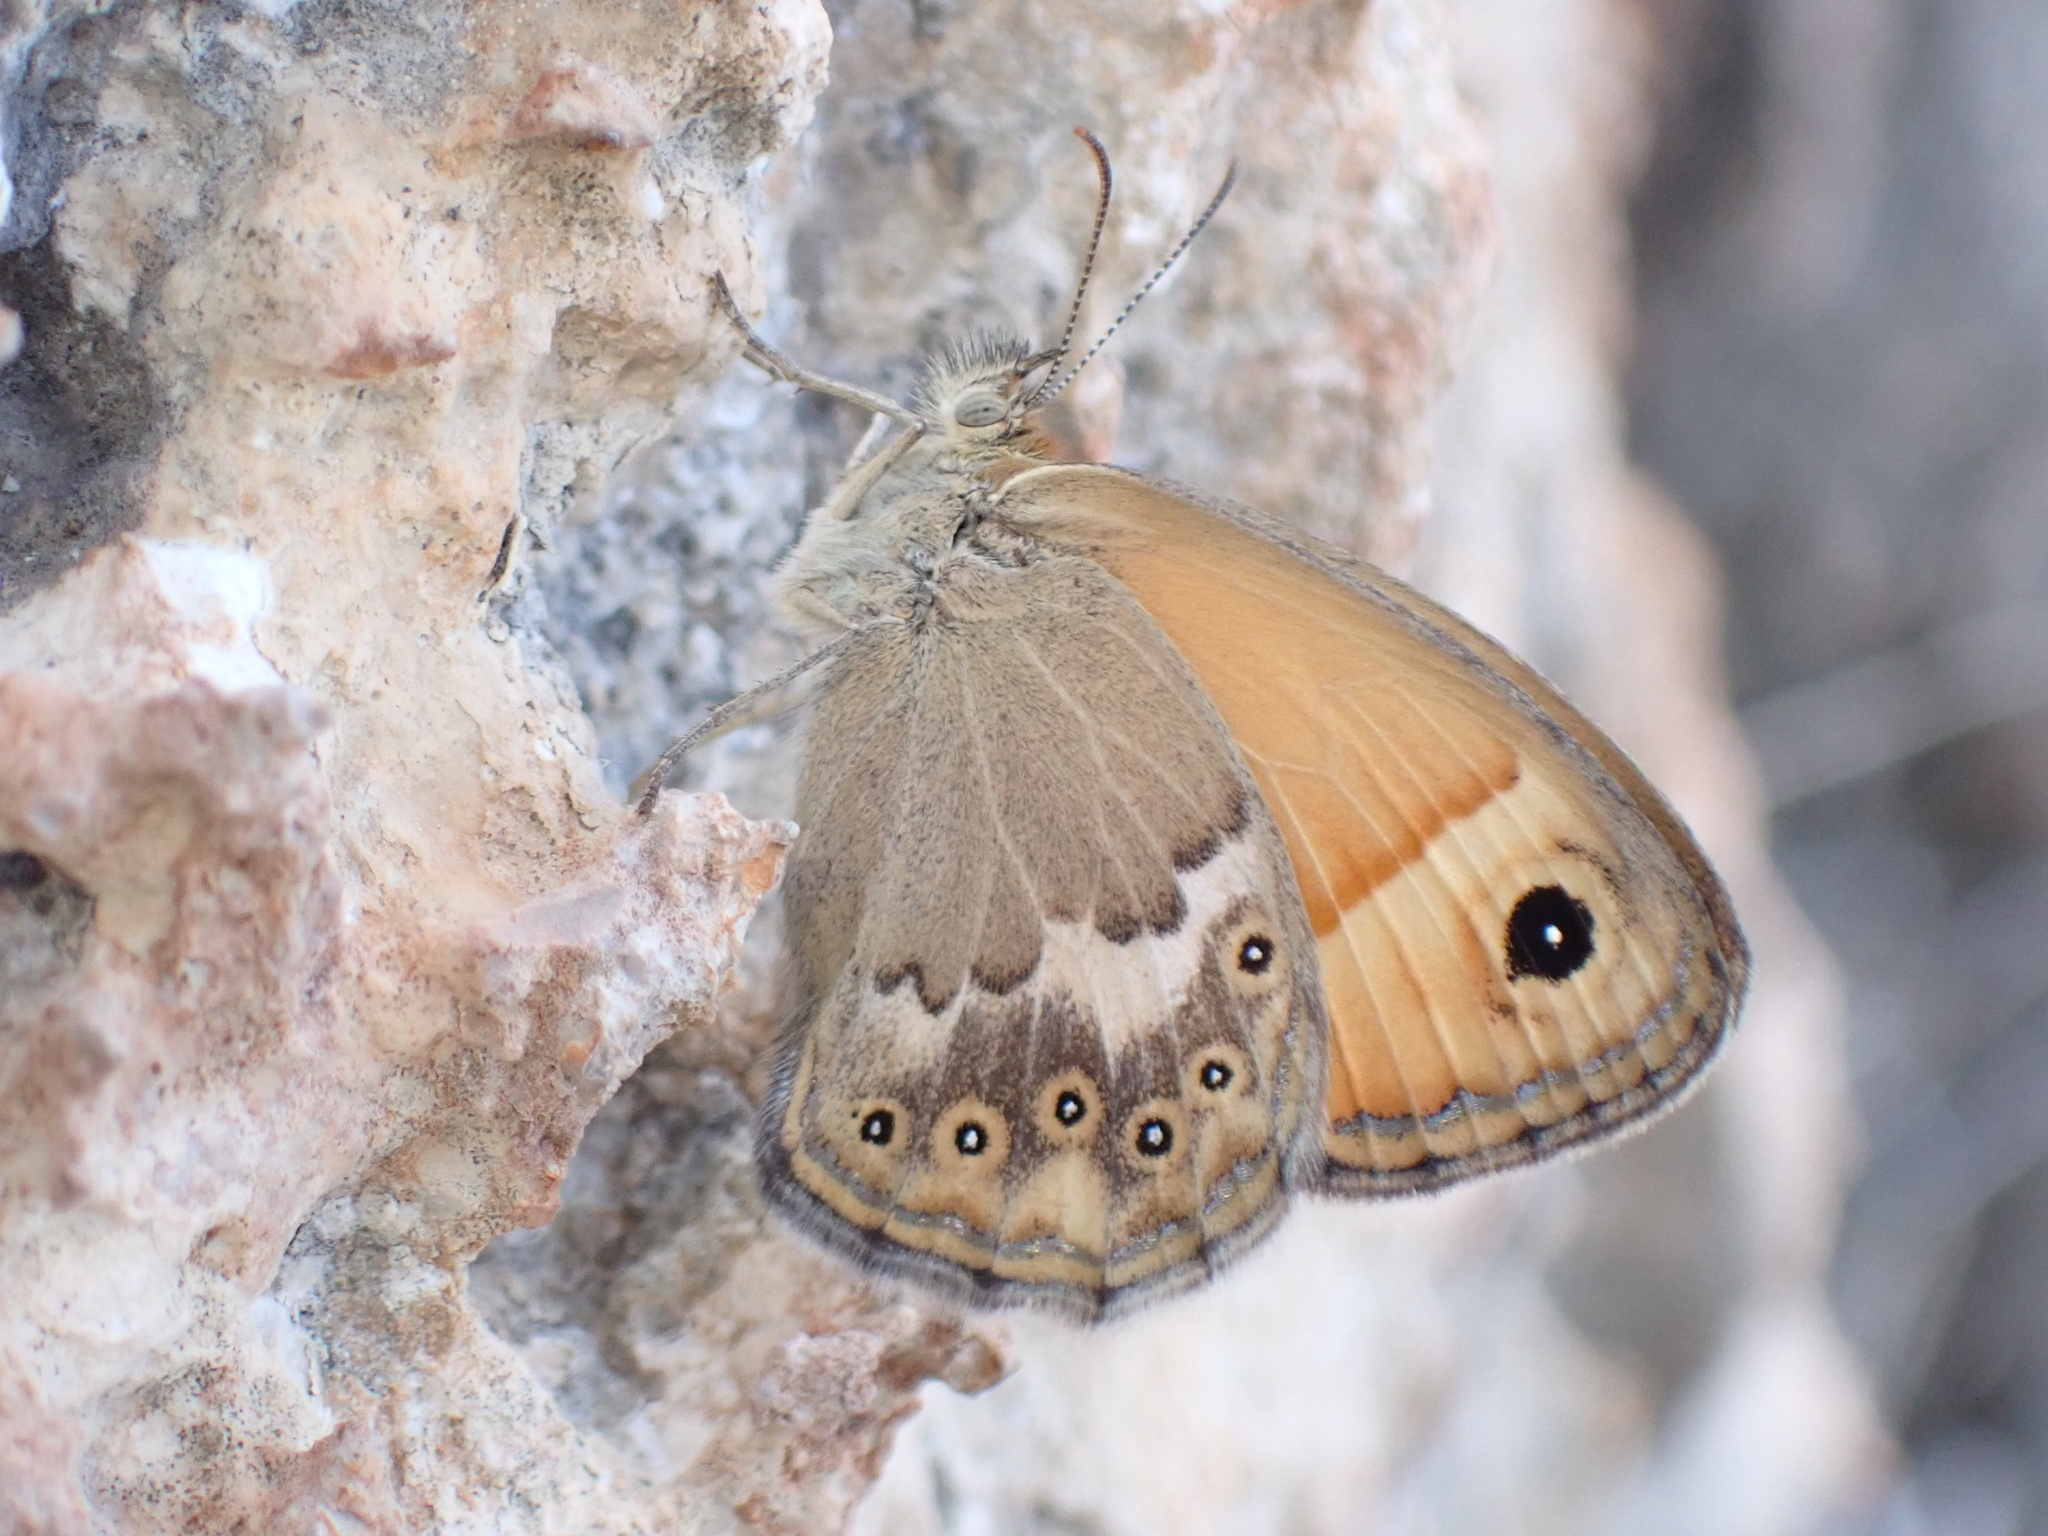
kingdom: Animalia
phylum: Arthropoda
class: Insecta
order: Lepidoptera
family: Nymphalidae
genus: Coenonympha
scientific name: Coenonympha thyrsis
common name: Cretan small heath
